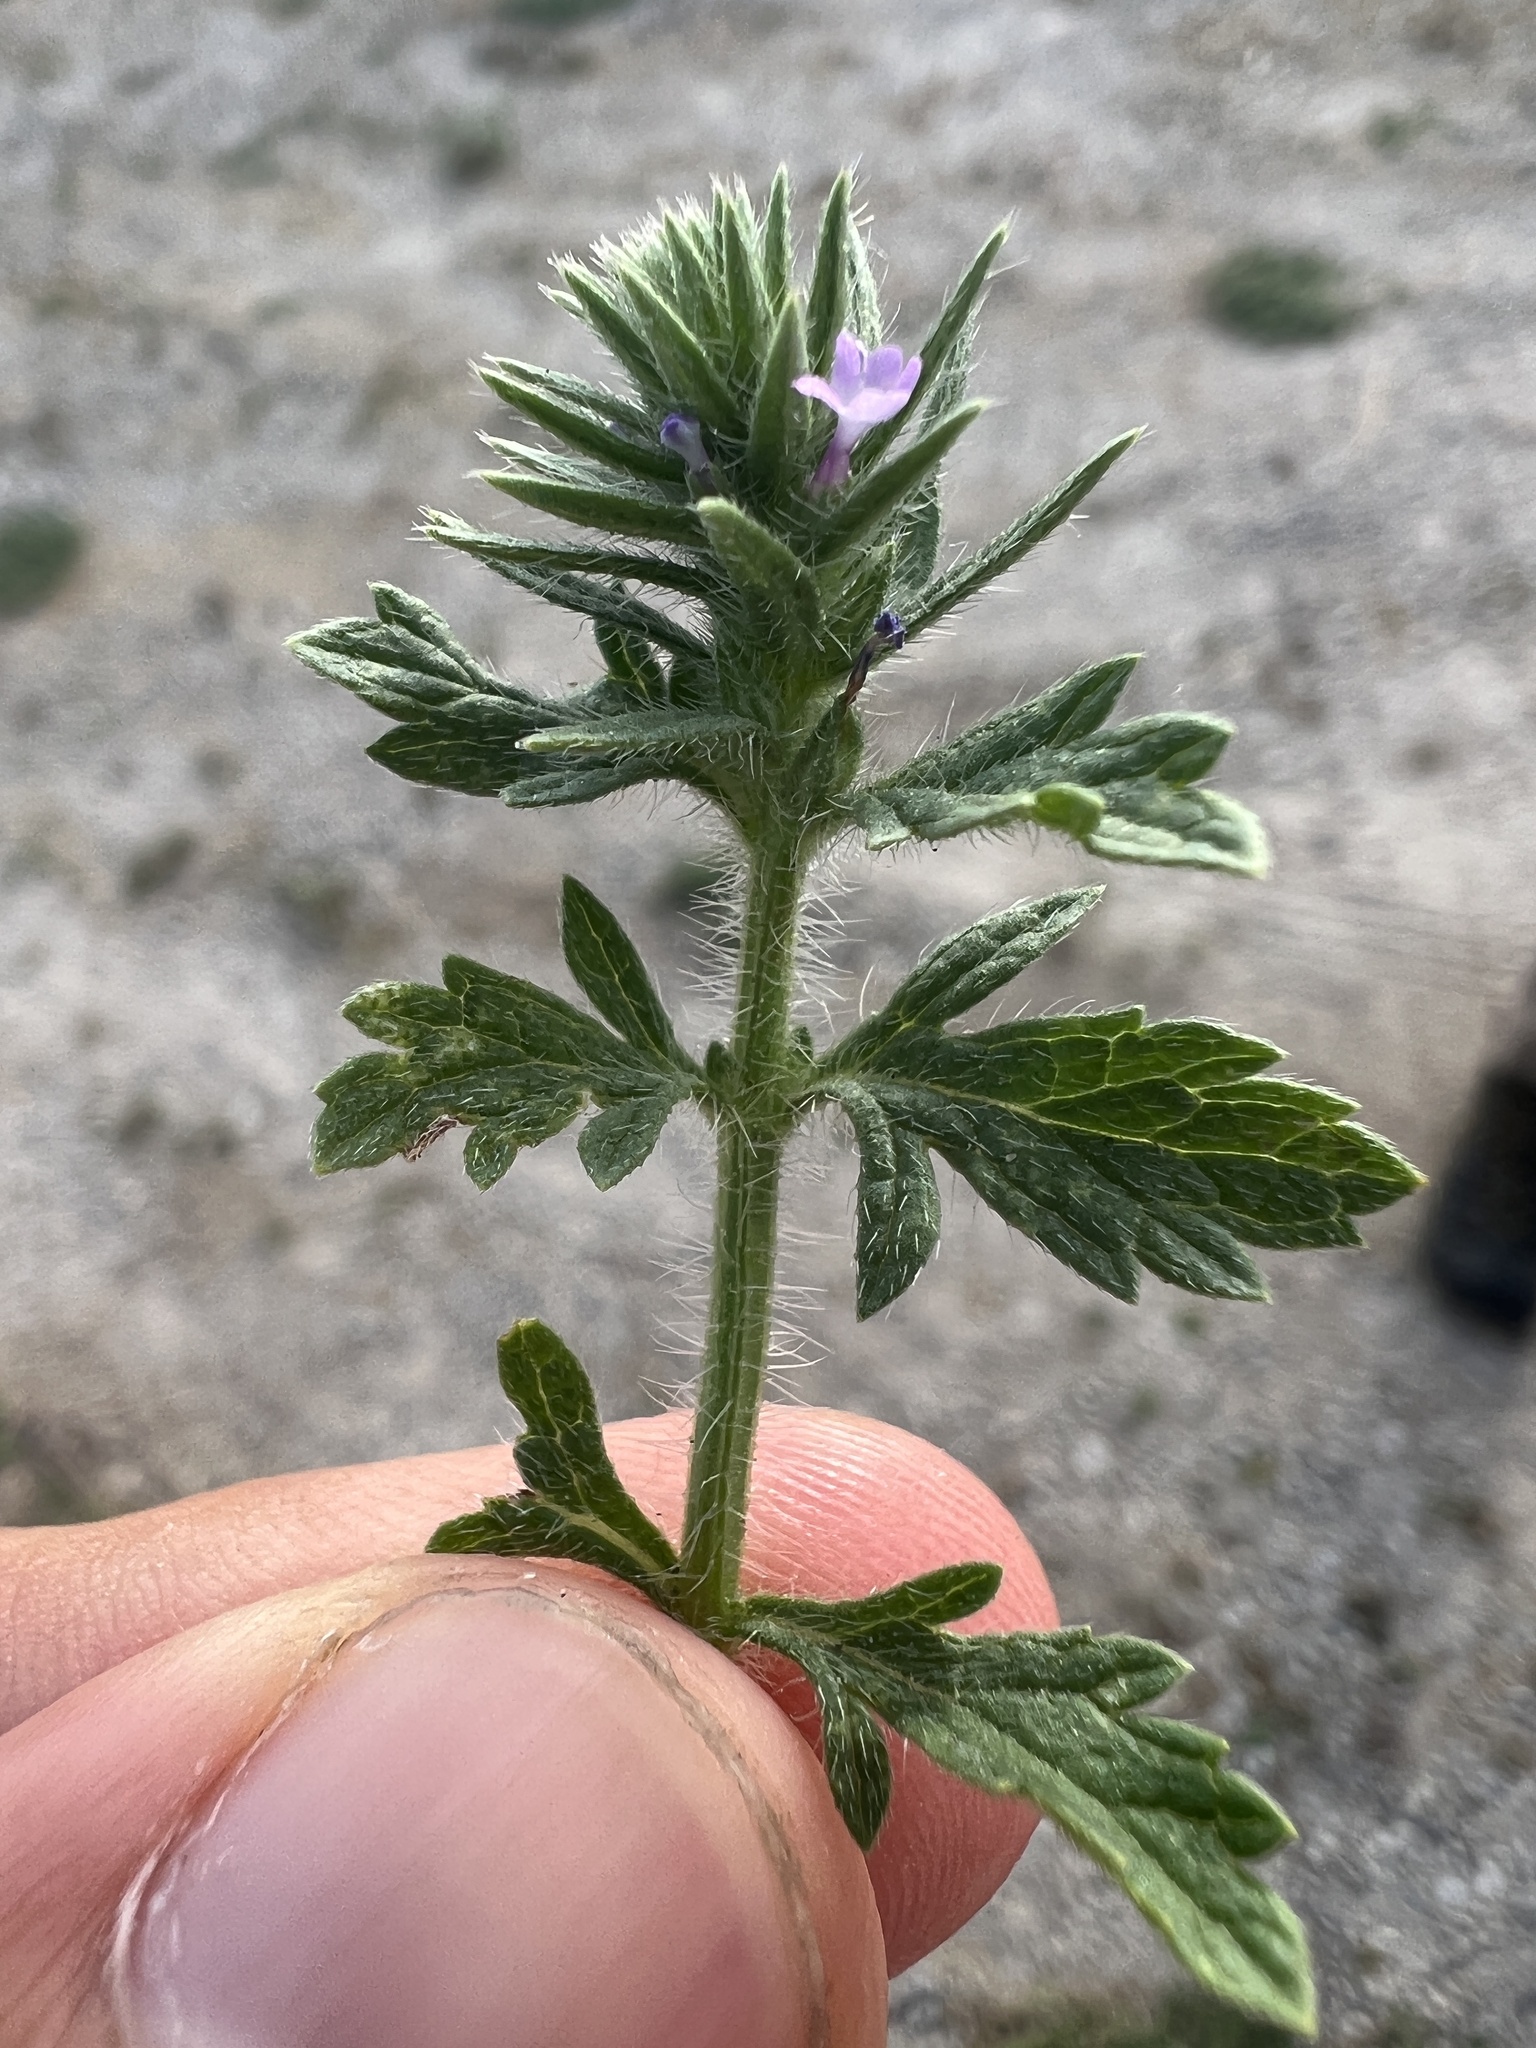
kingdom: Plantae
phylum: Tracheophyta
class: Magnoliopsida
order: Lamiales
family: Verbenaceae
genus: Verbena
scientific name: Verbena bracteata
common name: Bracted vervain
